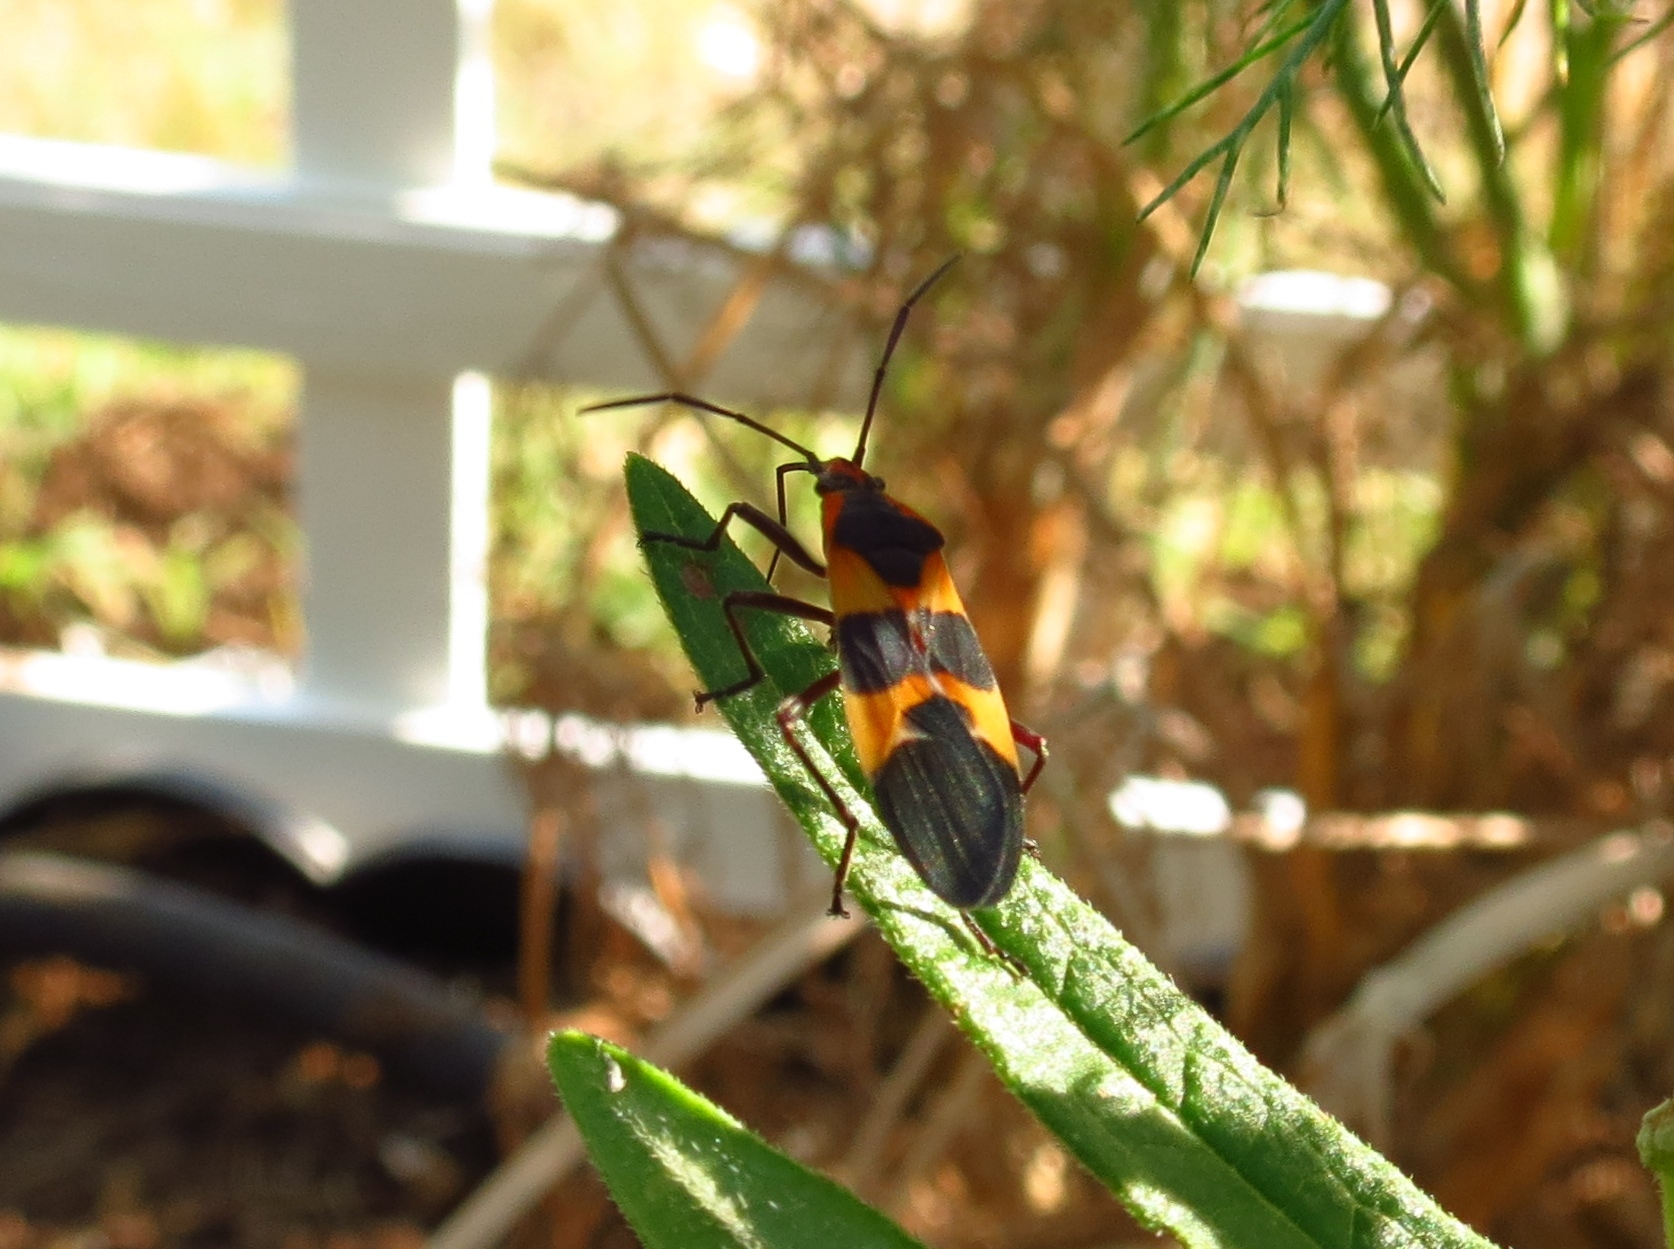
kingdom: Animalia
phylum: Arthropoda
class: Insecta
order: Hemiptera
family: Lygaeidae
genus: Oncopeltus
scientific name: Oncopeltus fasciatus
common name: Large milkweed bug
